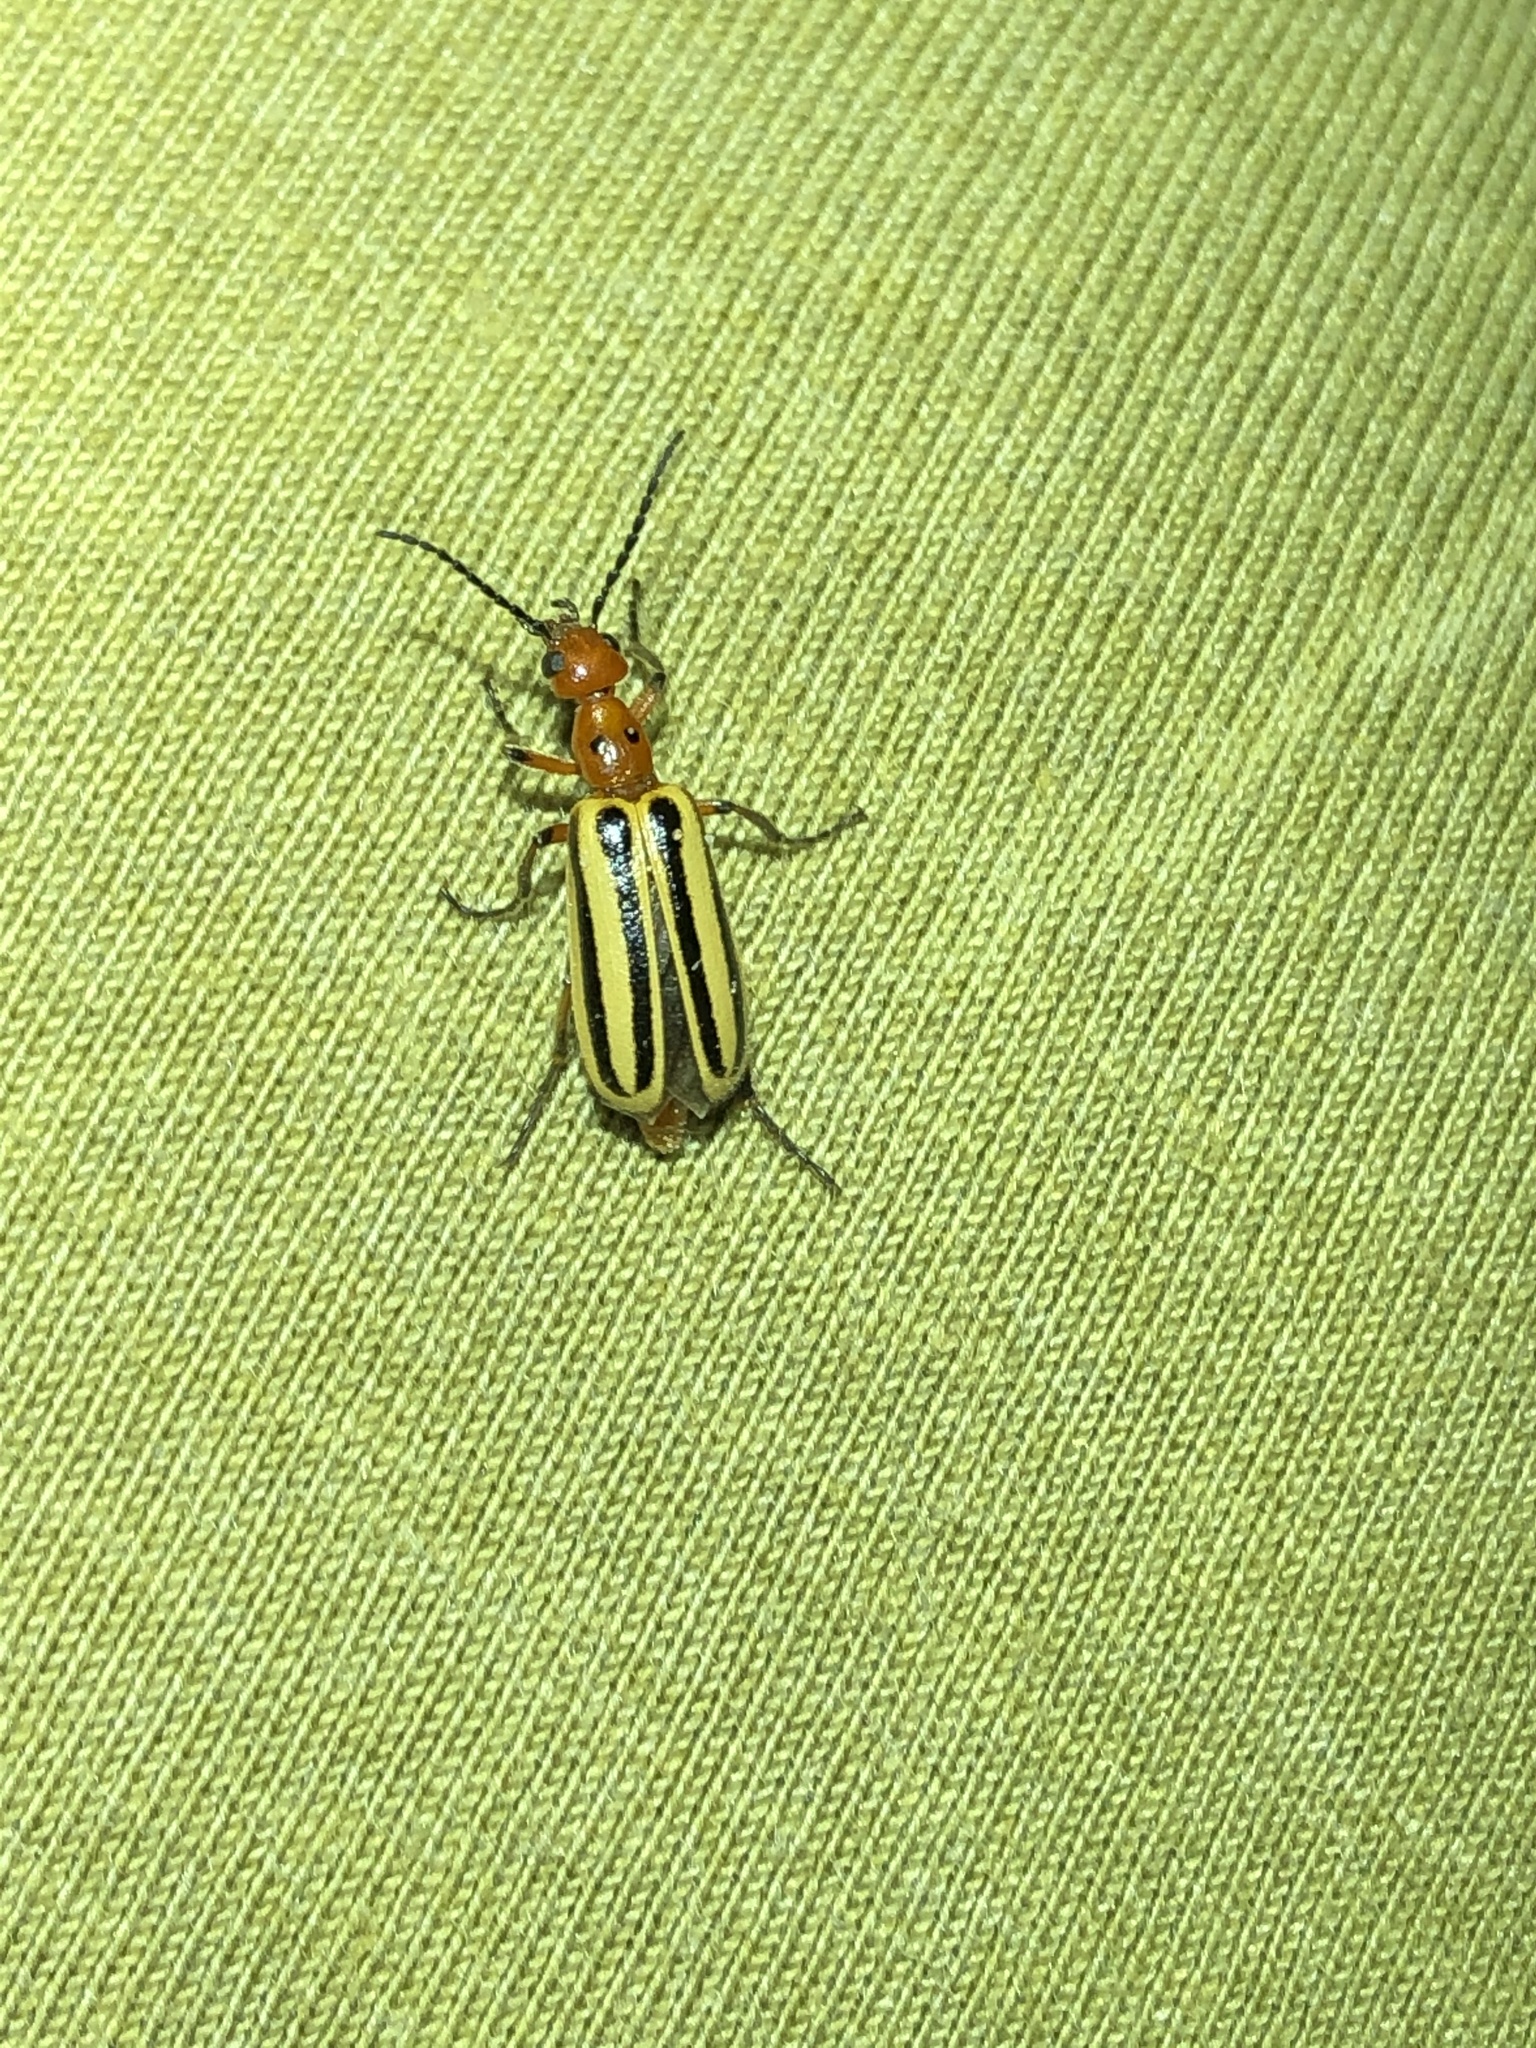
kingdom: Animalia
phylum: Arthropoda
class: Insecta
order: Coleoptera
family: Meloidae
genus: Pyrota
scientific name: Pyrota bilineata
